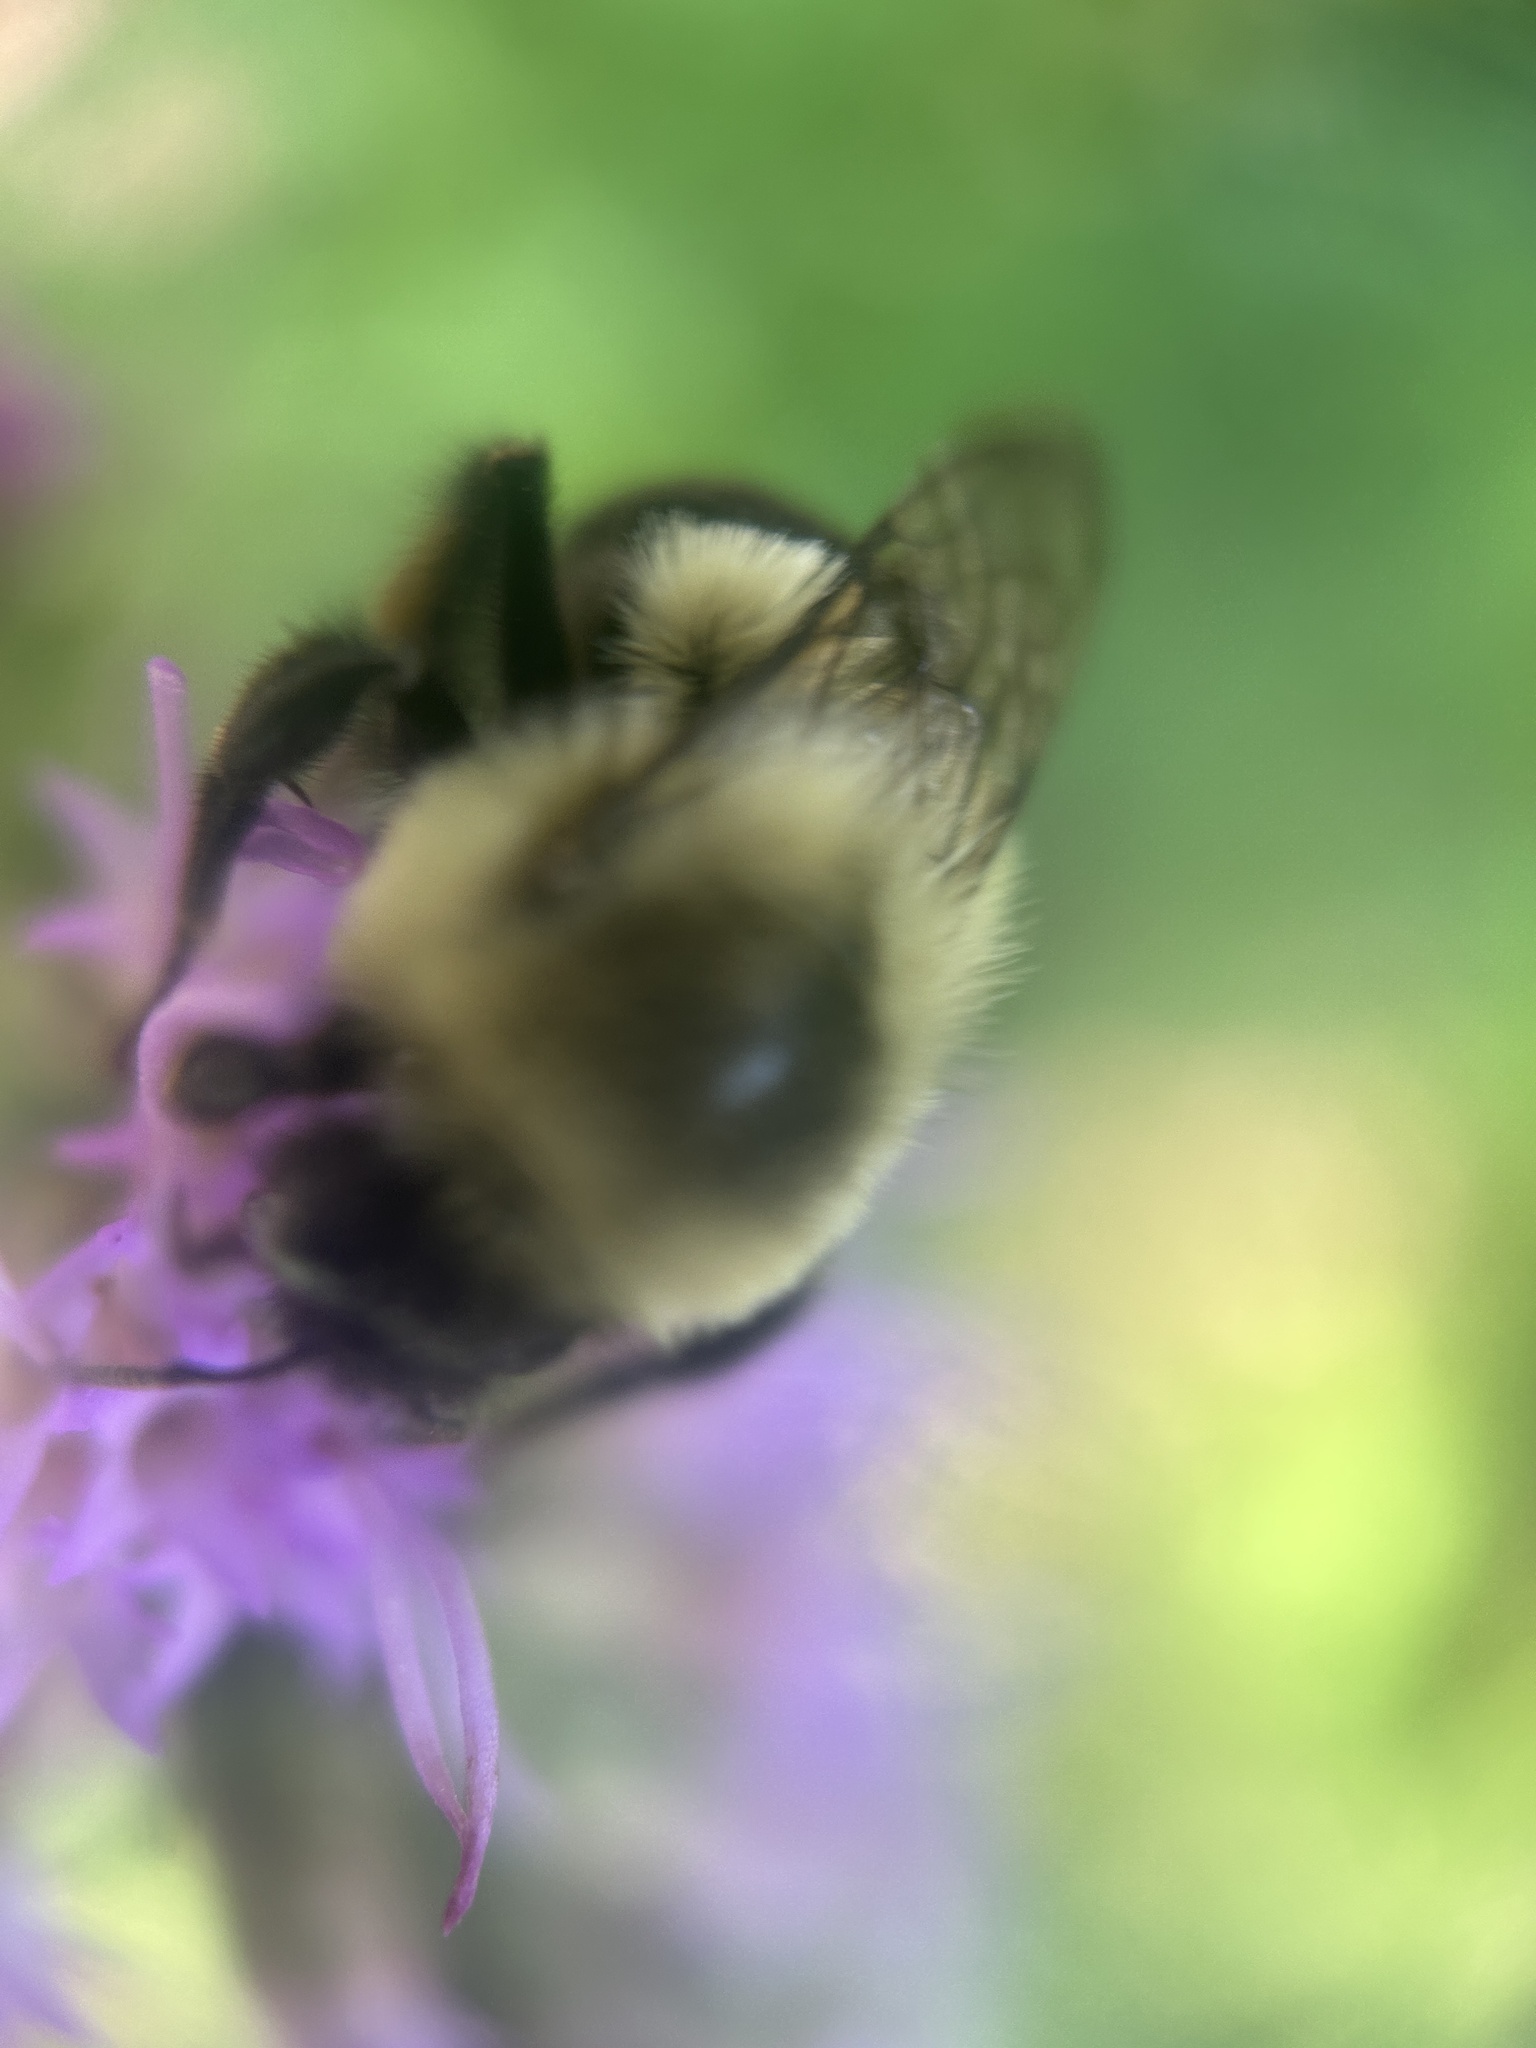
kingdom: Animalia
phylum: Arthropoda
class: Insecta
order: Hymenoptera
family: Apidae
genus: Bombus
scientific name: Bombus impatiens
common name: Common eastern bumble bee
